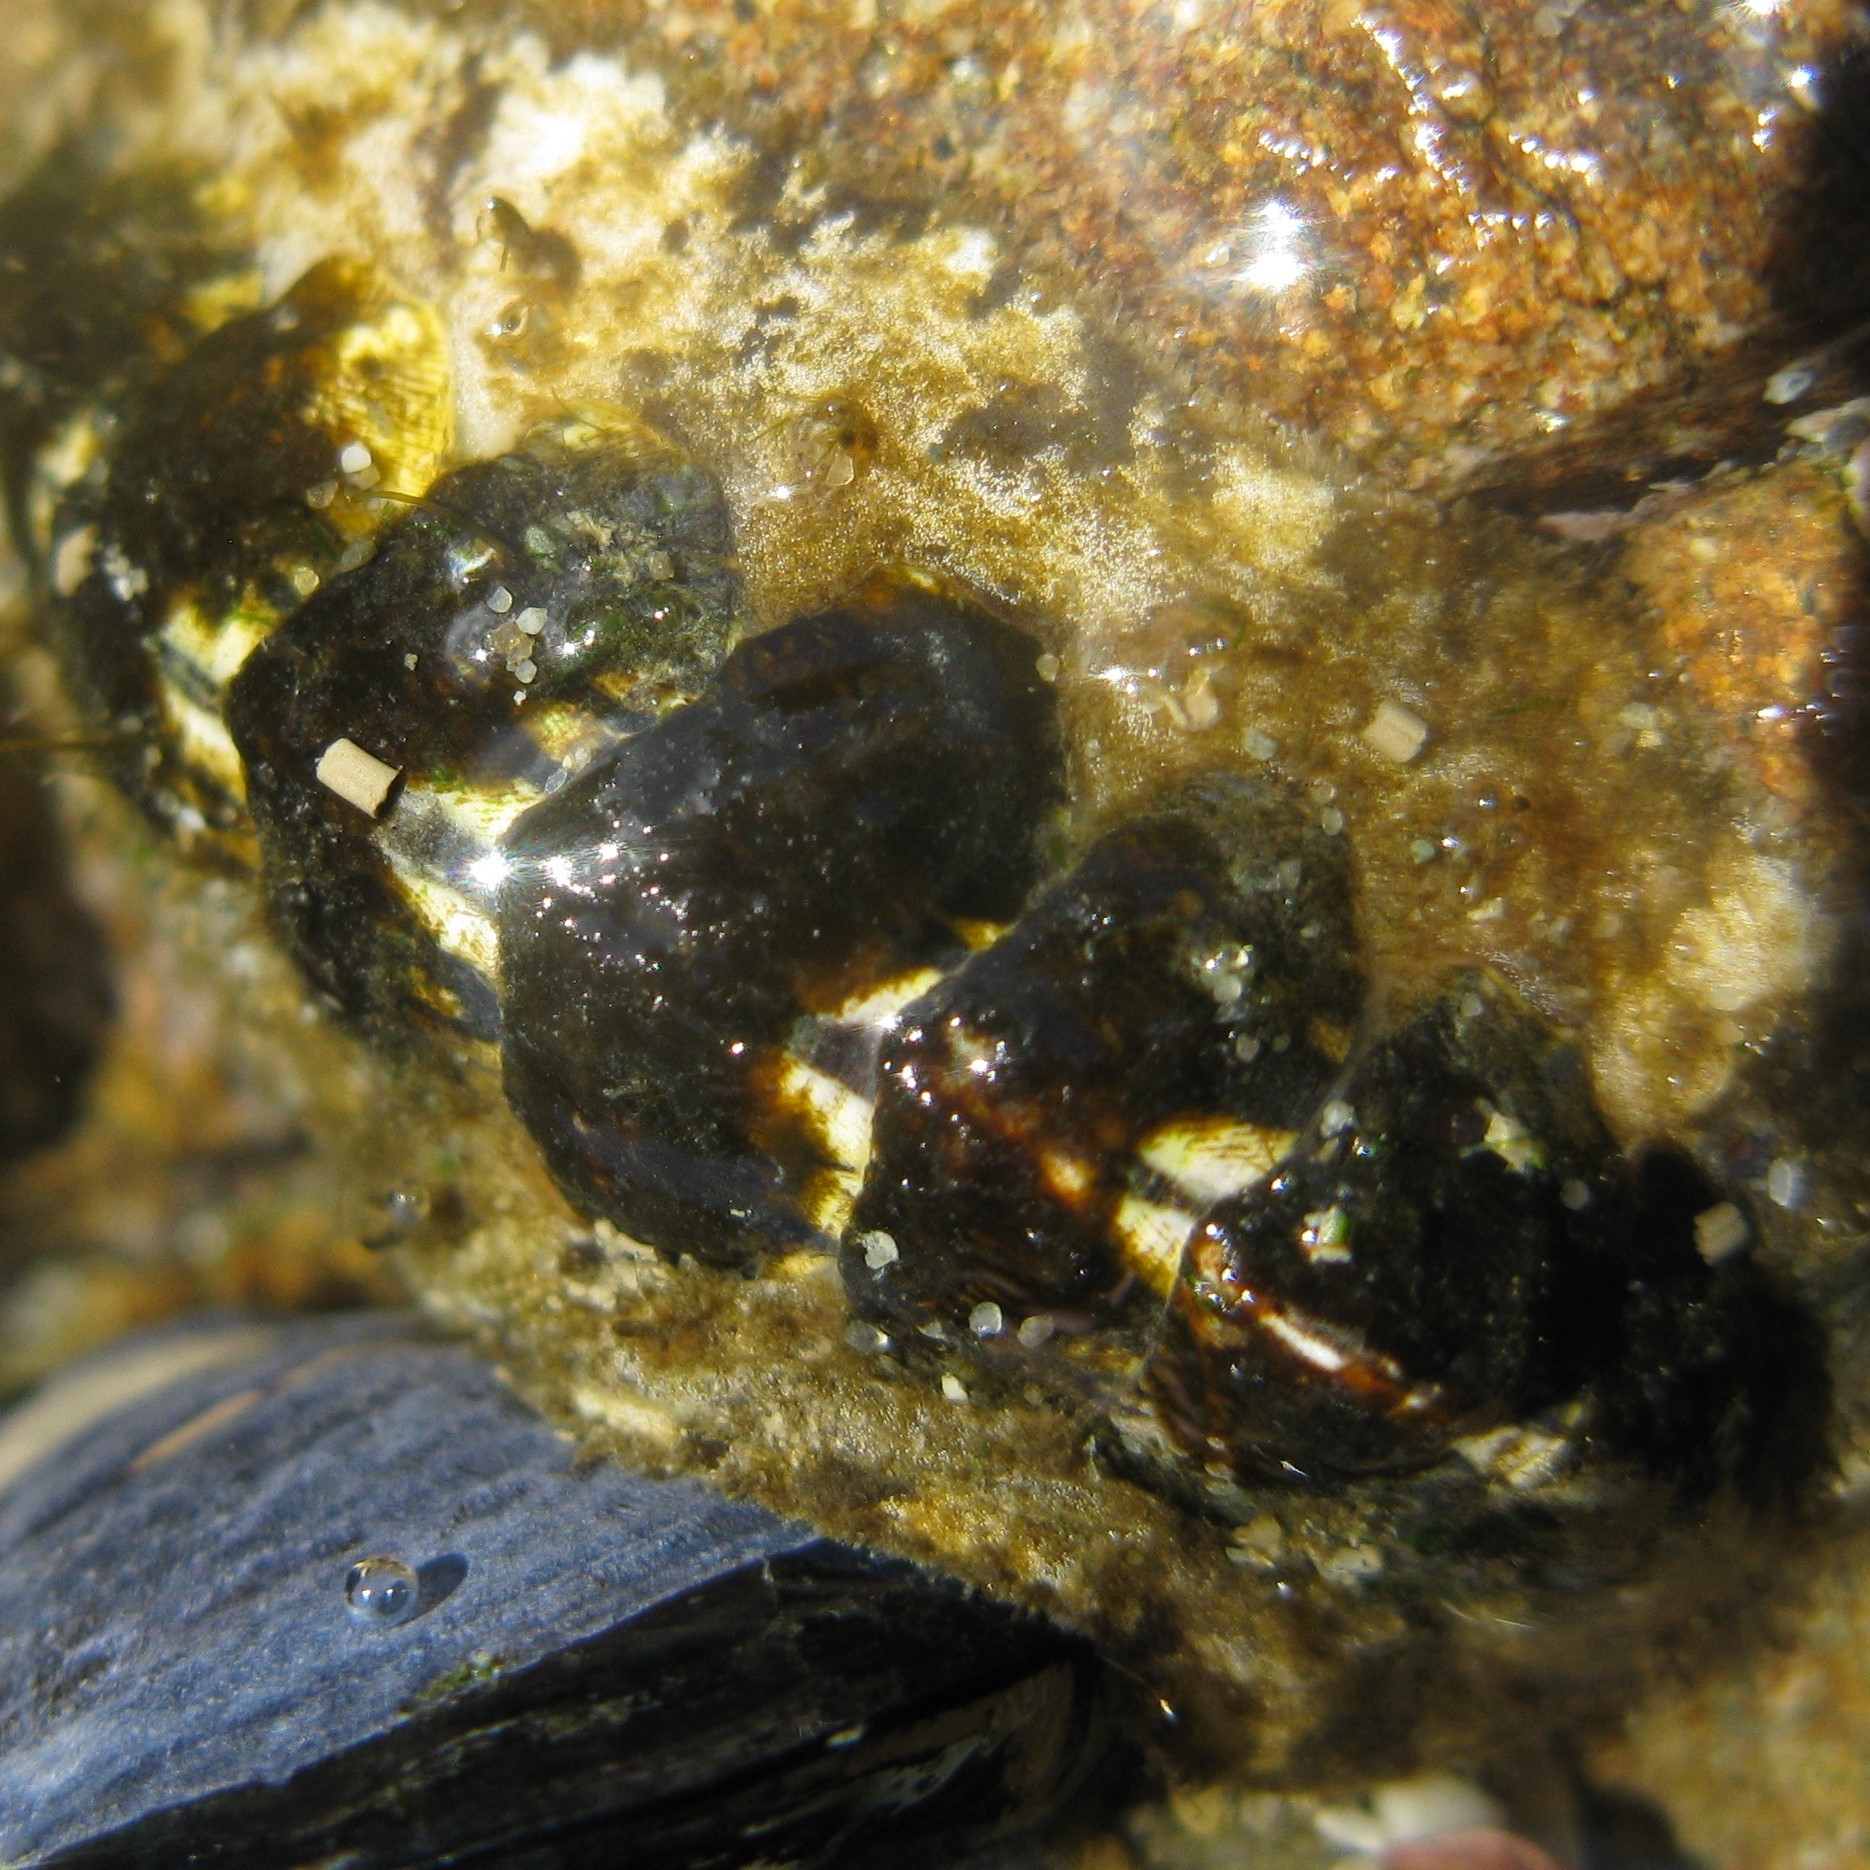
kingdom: Animalia
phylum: Mollusca
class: Polyplacophora
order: Chitonida
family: Mopaliidae
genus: Plaxiphora
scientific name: Plaxiphora caelata
